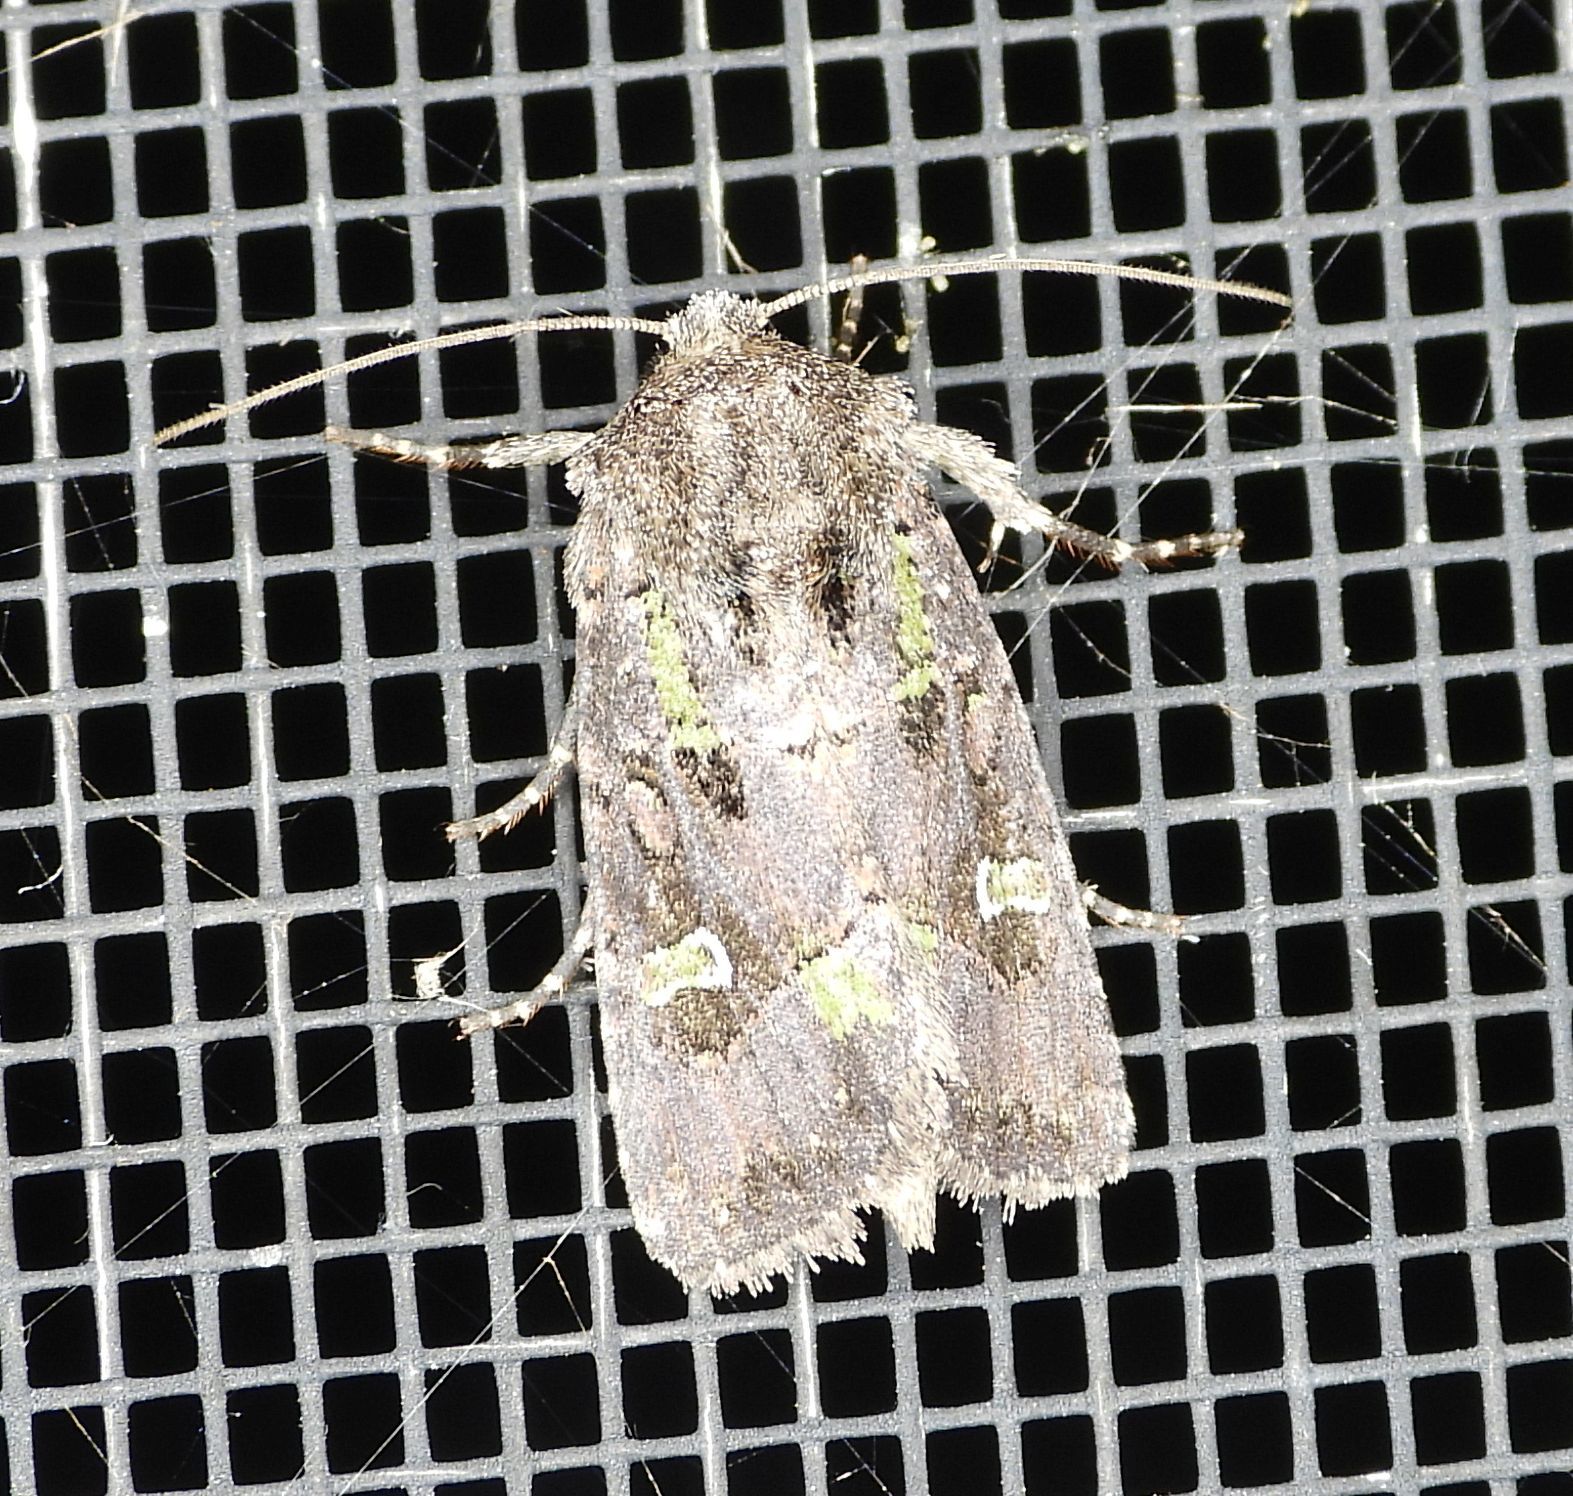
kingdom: Animalia
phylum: Arthropoda
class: Insecta
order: Lepidoptera
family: Noctuidae
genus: Lacinipolia
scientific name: Lacinipolia renigera
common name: Kidney-spotted minor
